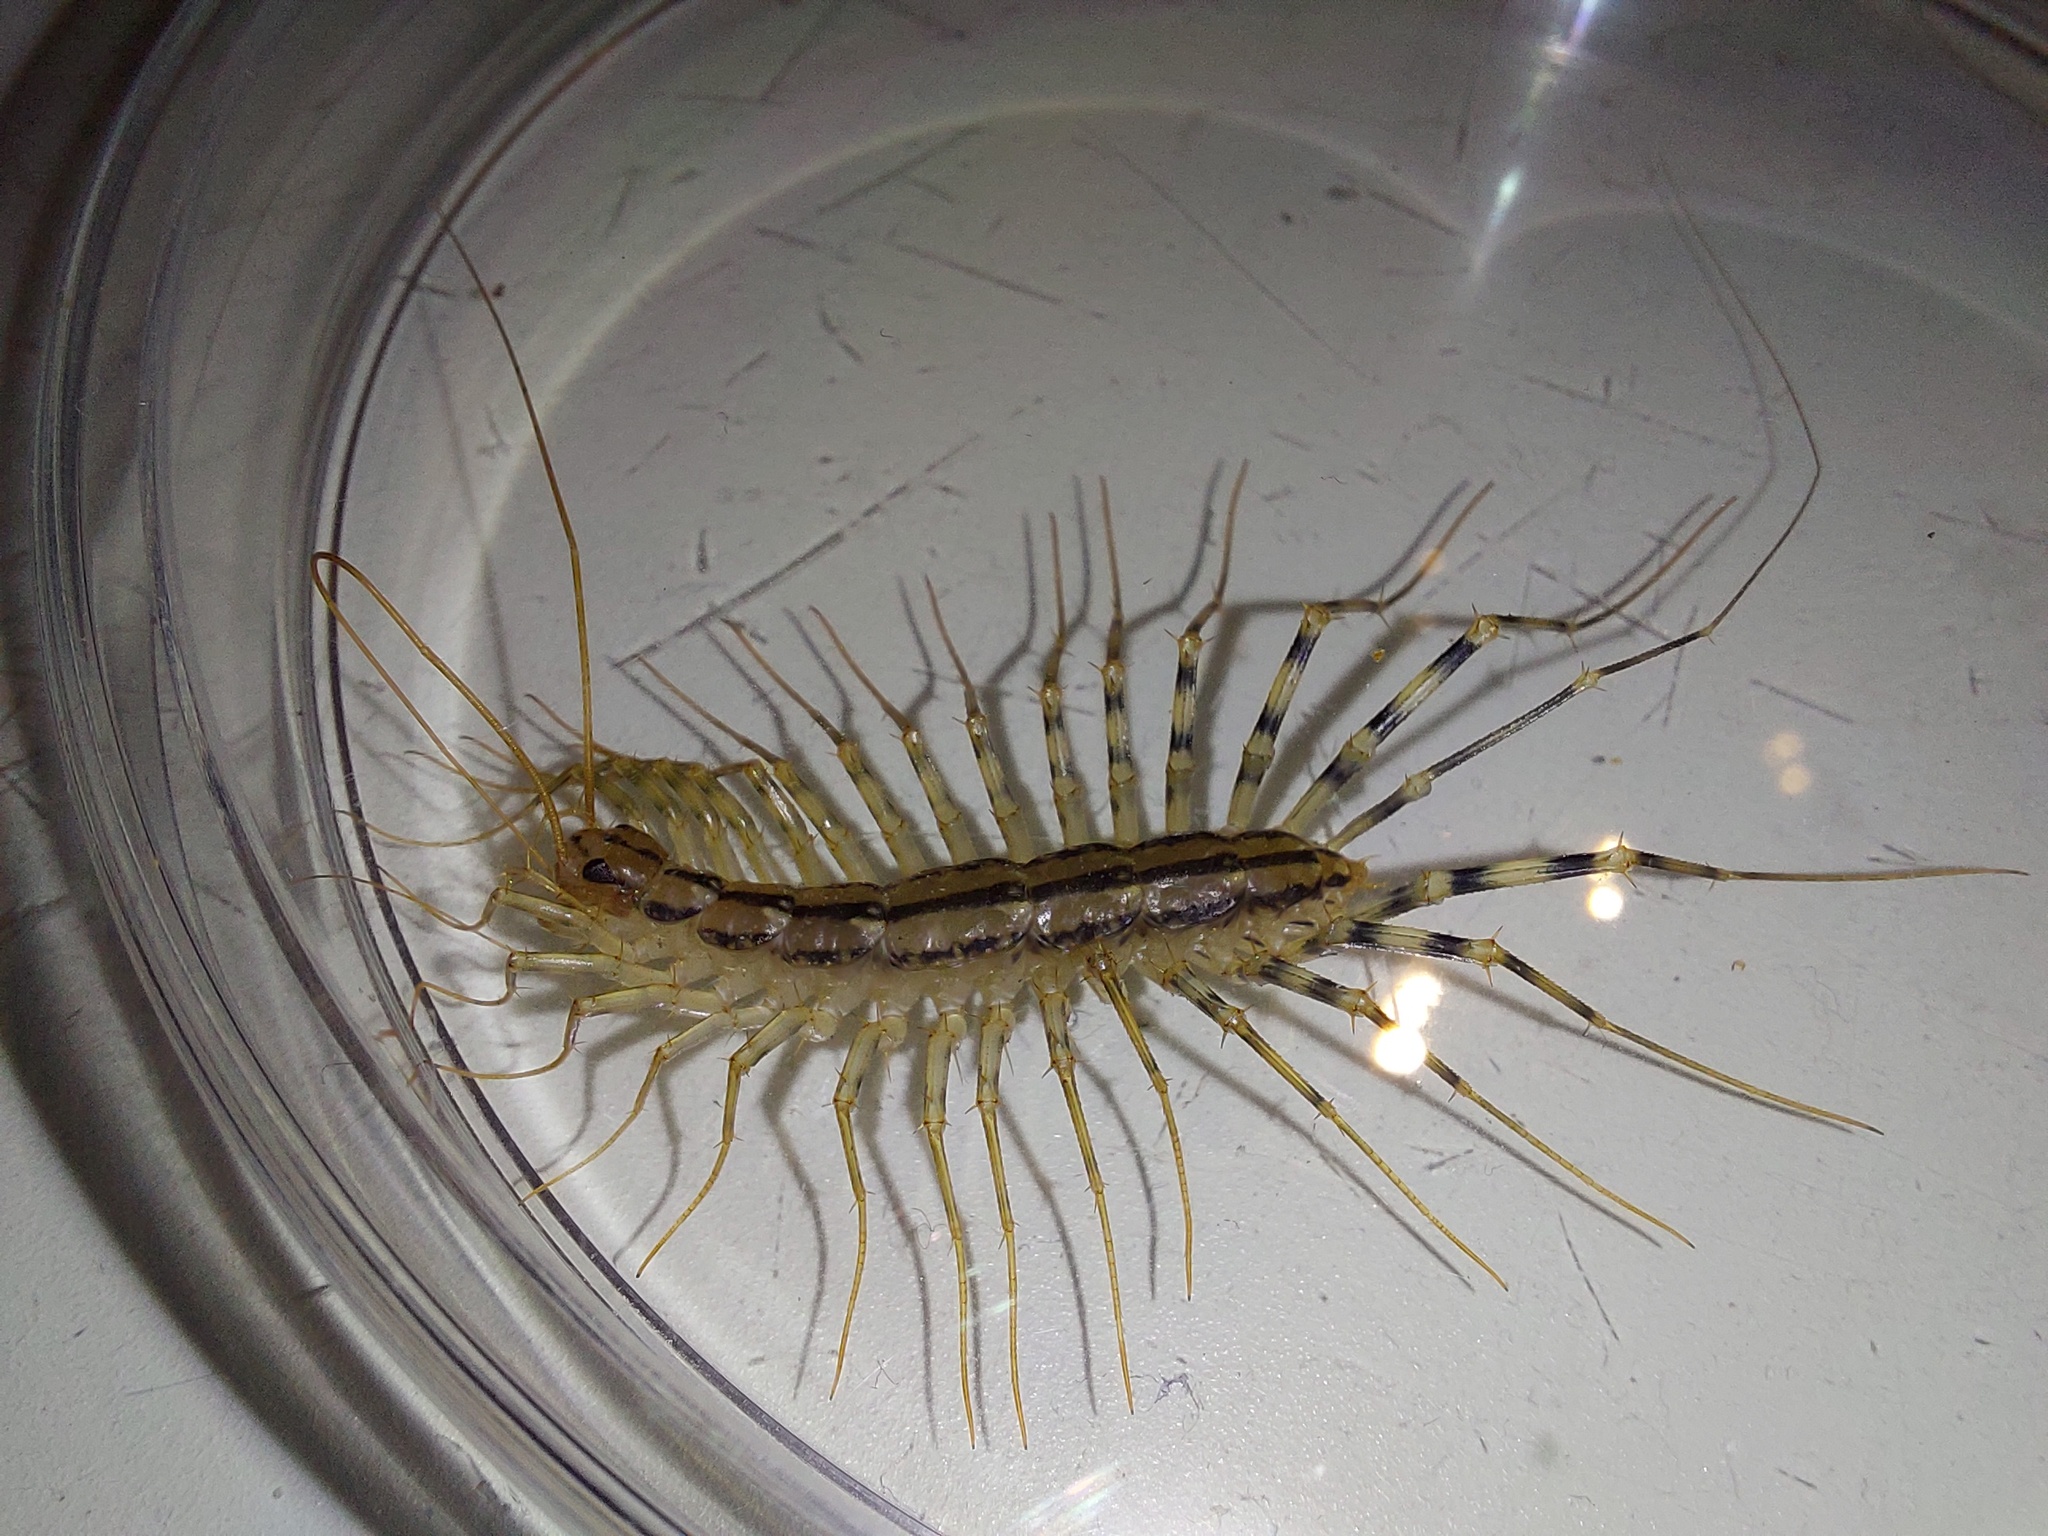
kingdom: Animalia
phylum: Arthropoda
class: Chilopoda
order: Scutigeromorpha
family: Scutigeridae
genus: Scutigera
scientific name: Scutigera coleoptrata
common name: House centipede
